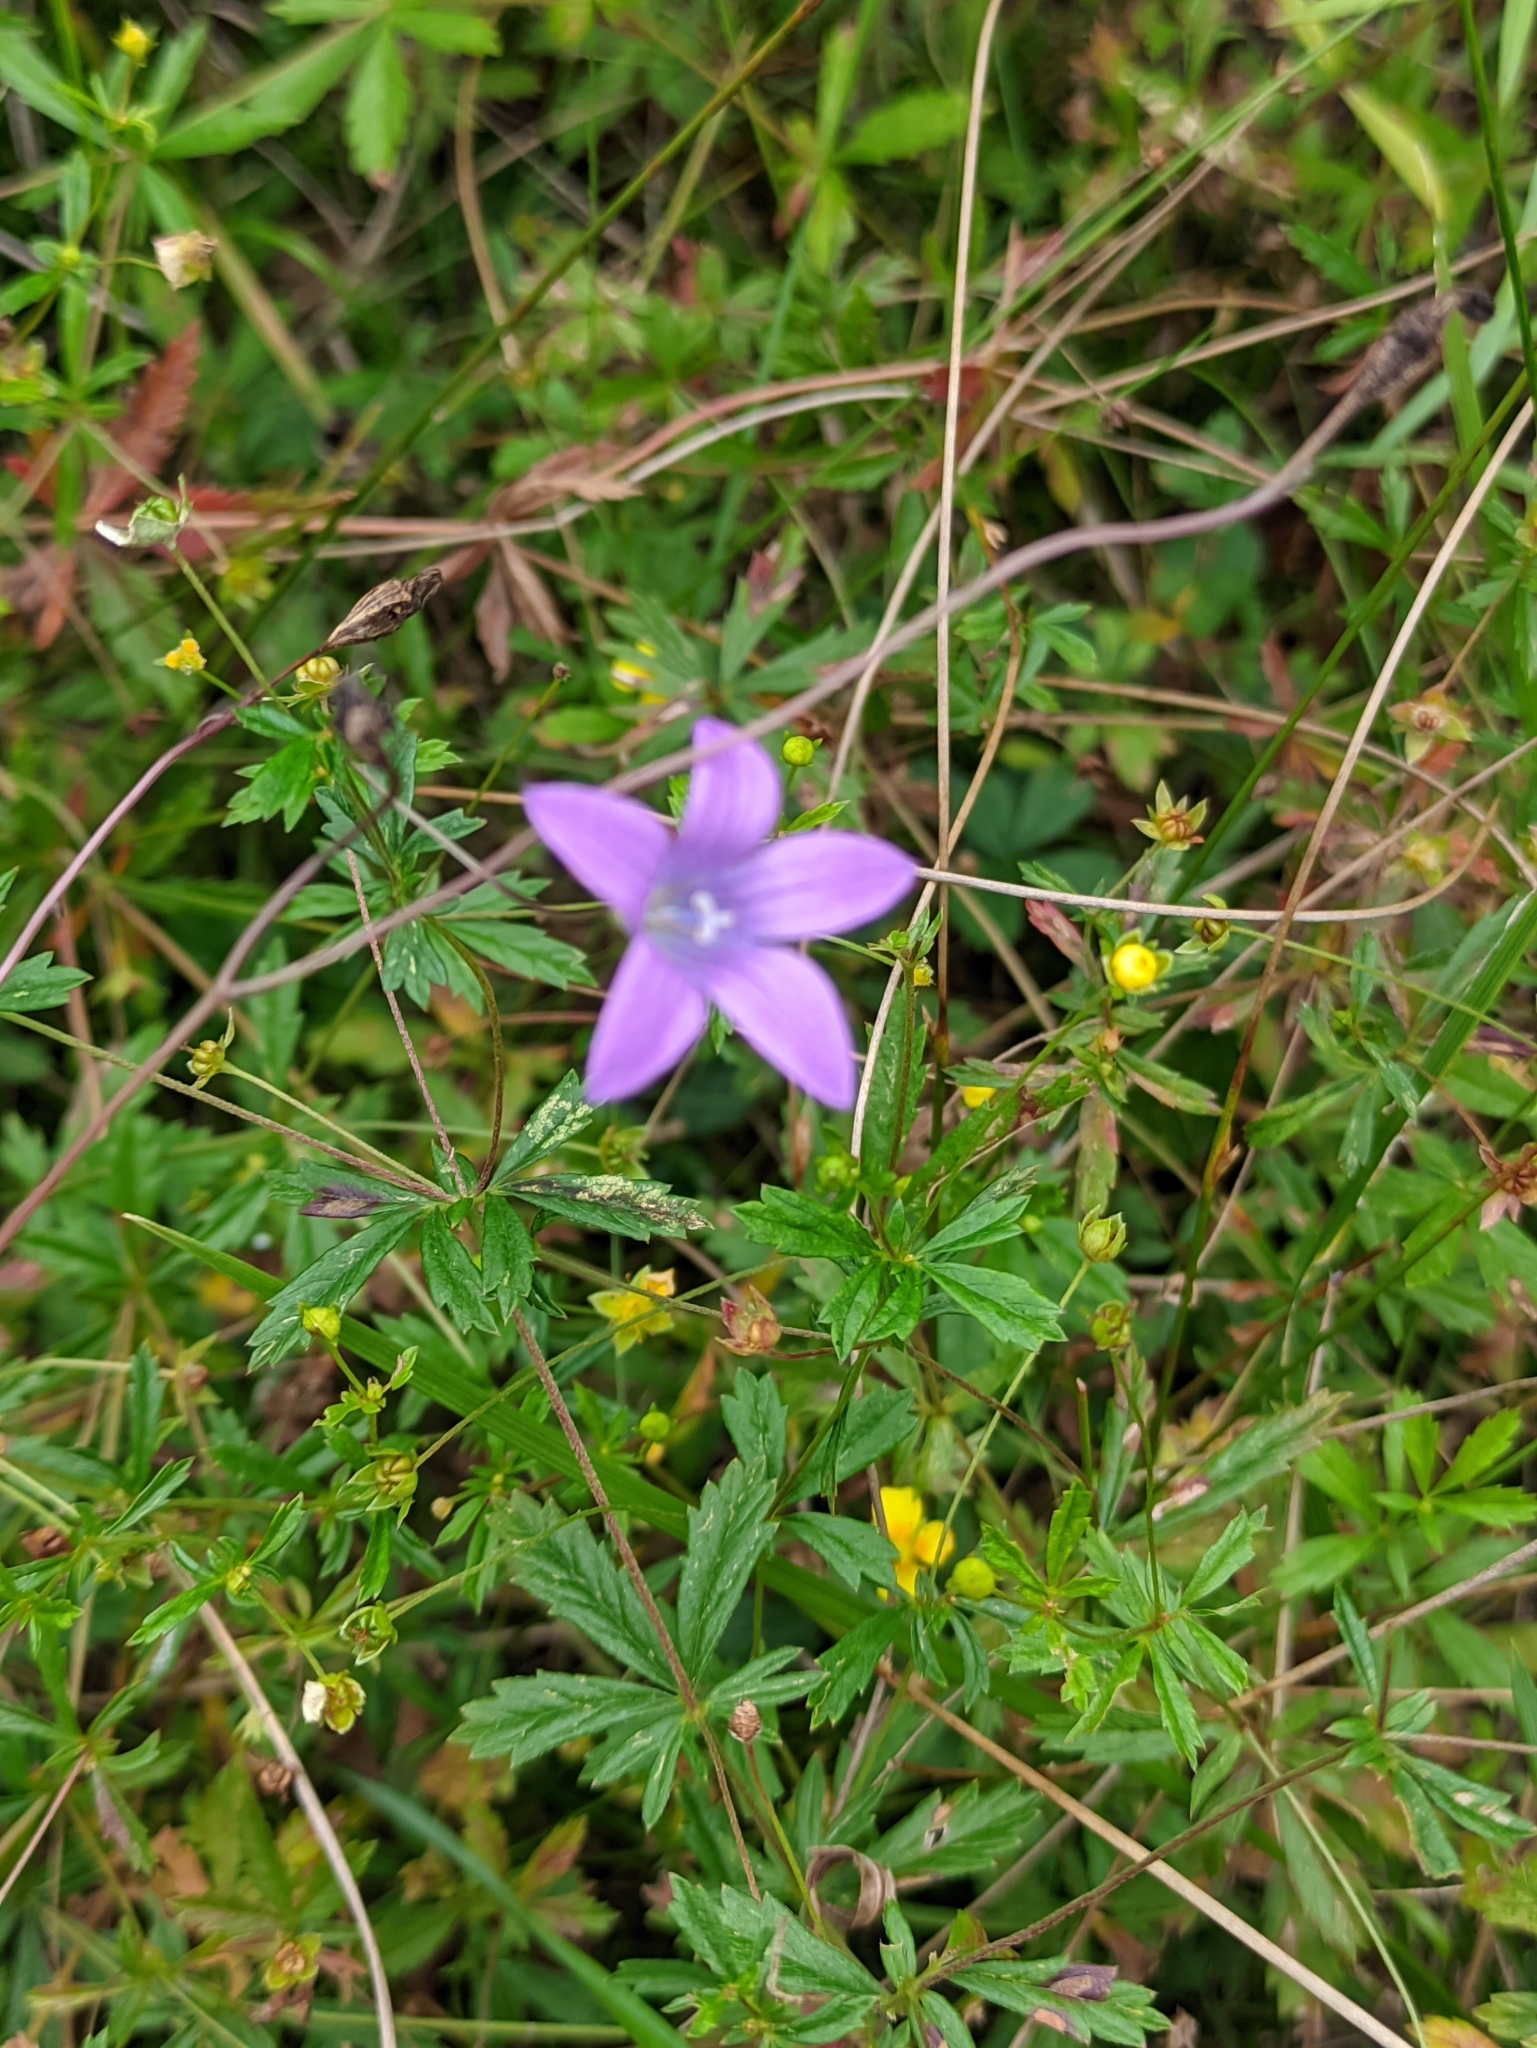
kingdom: Plantae
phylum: Tracheophyta
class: Magnoliopsida
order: Asterales
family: Campanulaceae
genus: Campanula
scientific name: Campanula patula
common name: Spreading bellflower
